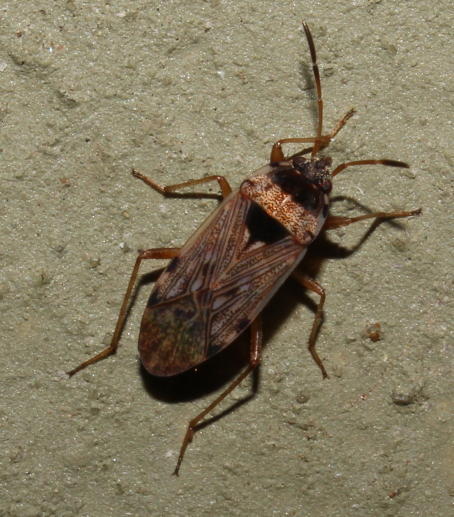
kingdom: Animalia
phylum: Arthropoda
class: Insecta
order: Hemiptera
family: Rhyparochromidae
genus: Elasmolomus
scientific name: Elasmolomus transversus
